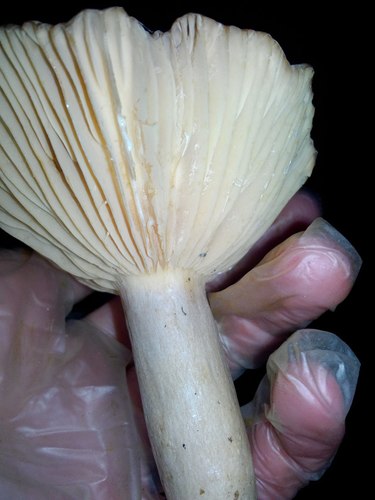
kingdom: Fungi
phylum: Basidiomycota
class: Agaricomycetes
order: Russulales
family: Russulaceae
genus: Lactarius
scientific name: Lactarius utilis
